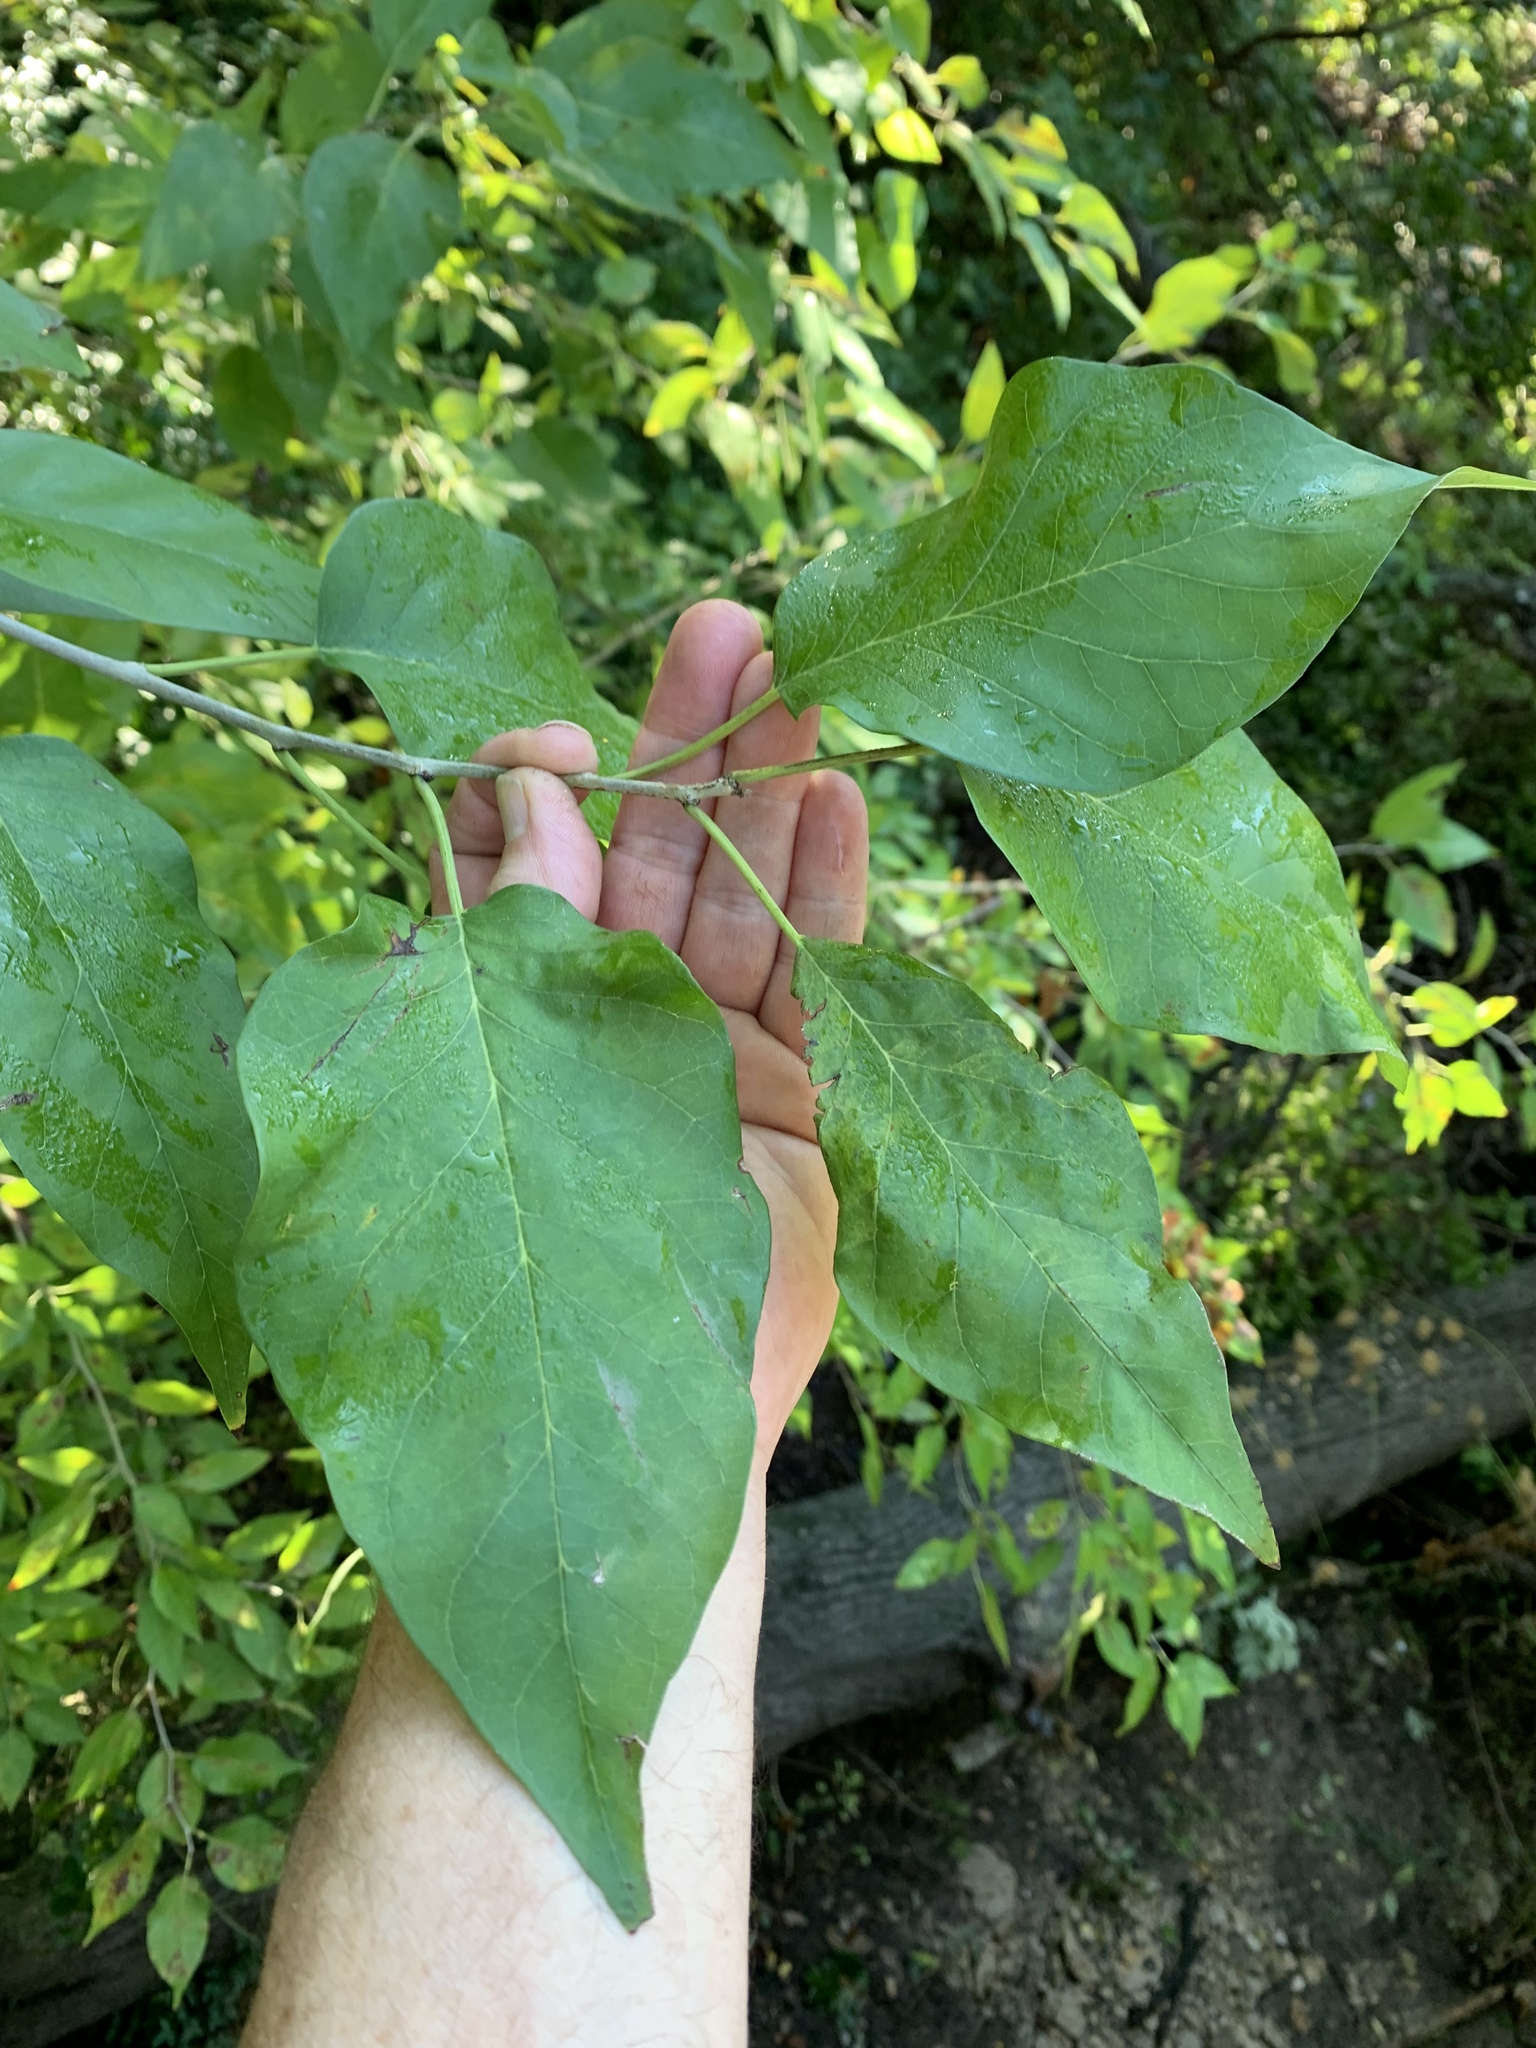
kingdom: Plantae
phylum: Tracheophyta
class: Magnoliopsida
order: Rosales
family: Moraceae
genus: Maclura
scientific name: Maclura pomifera
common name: Osage-orange
